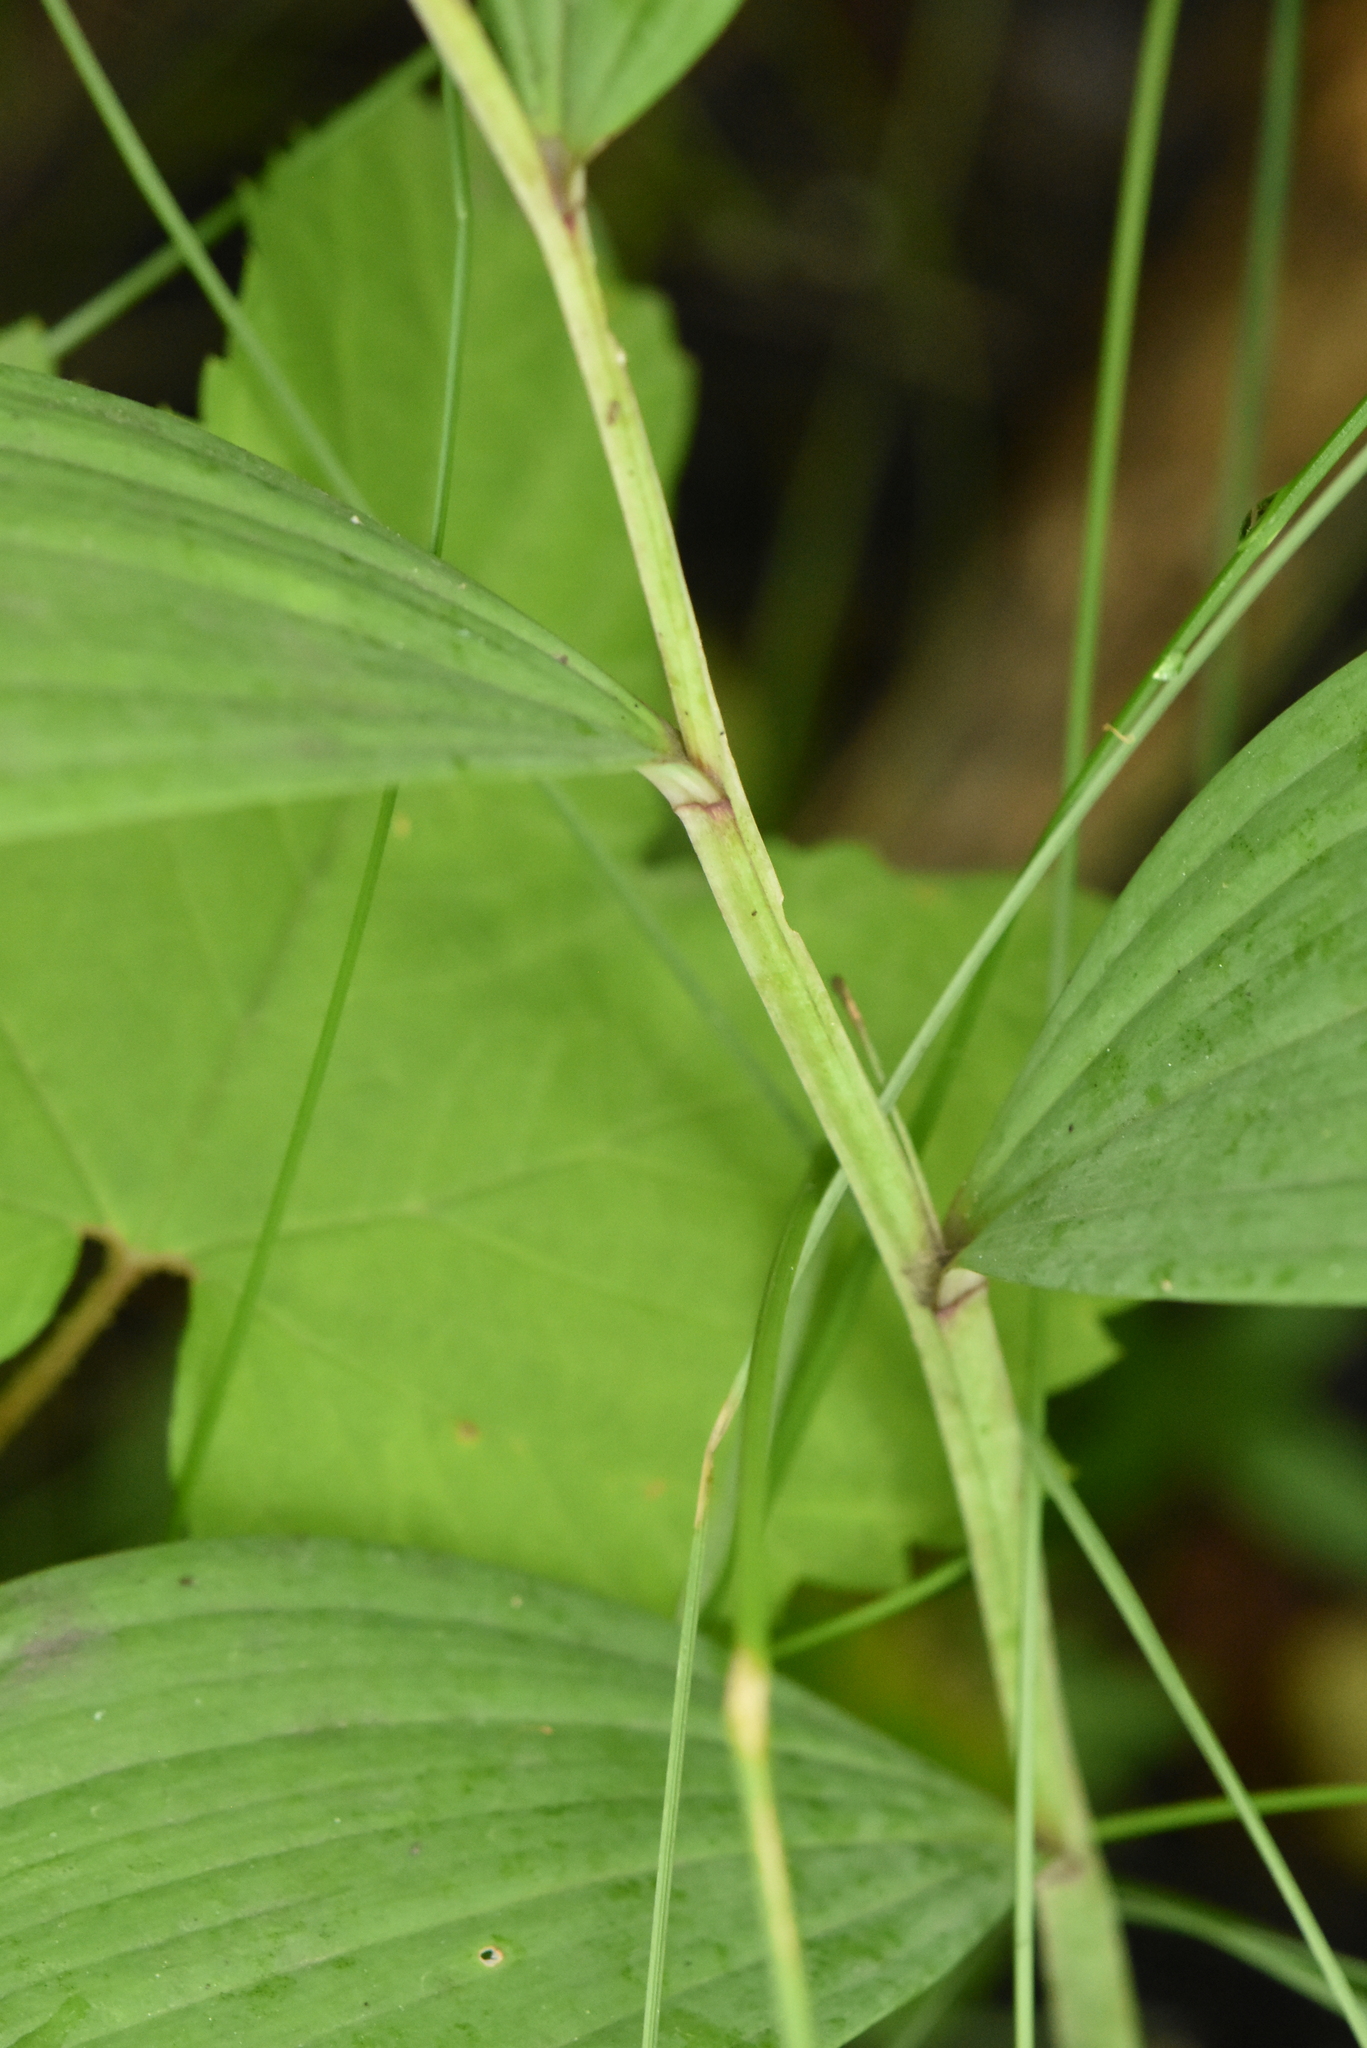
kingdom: Plantae
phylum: Tracheophyta
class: Liliopsida
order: Asparagales
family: Asparagaceae
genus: Polygonatum
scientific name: Polygonatum odoratum
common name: Angular solomon's-seal
